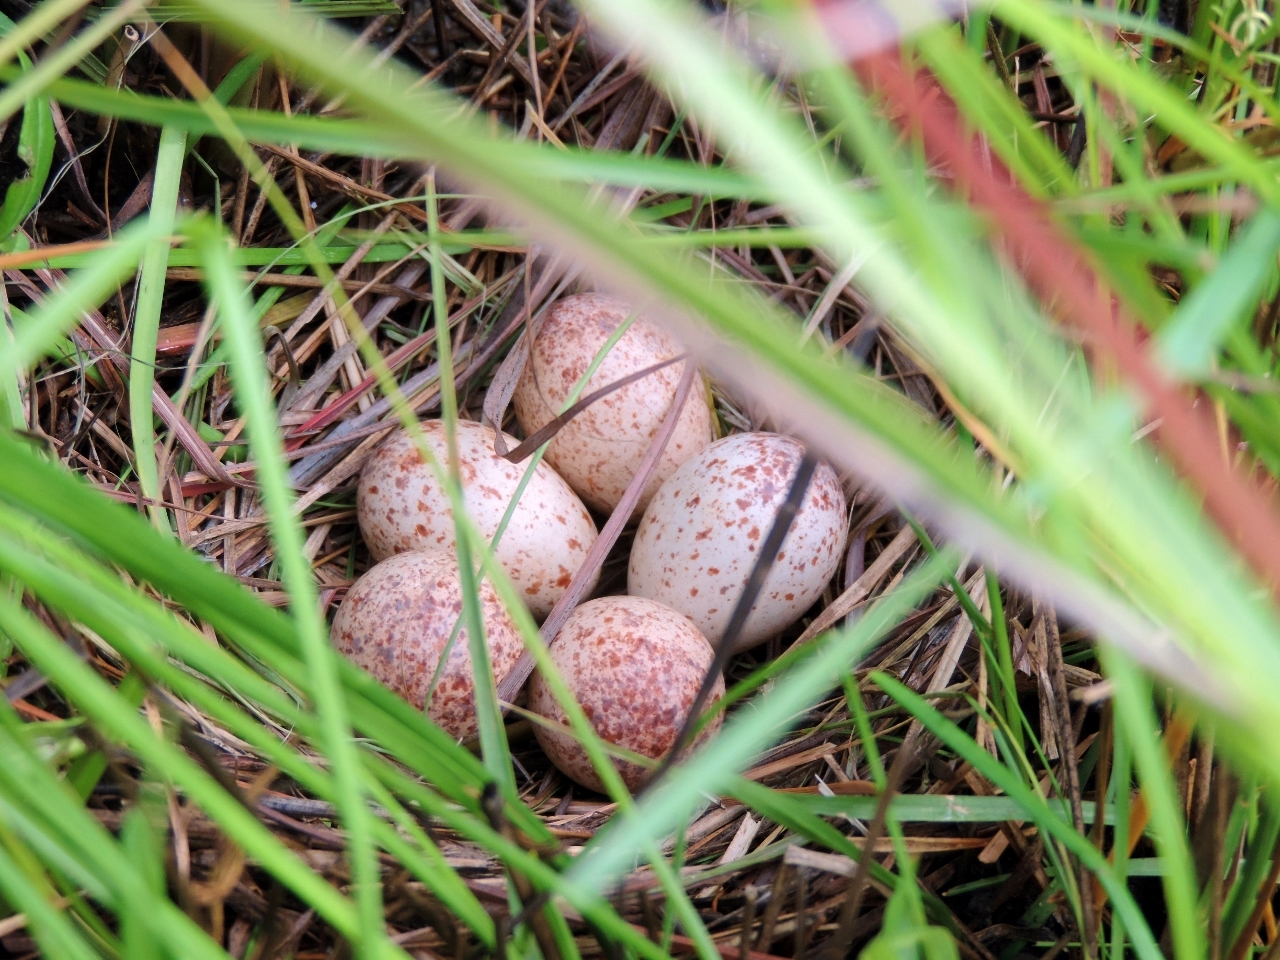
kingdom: Animalia
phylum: Chordata
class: Aves
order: Gruiformes
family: Rallidae
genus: Crex
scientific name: Crex egregia
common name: African crake
